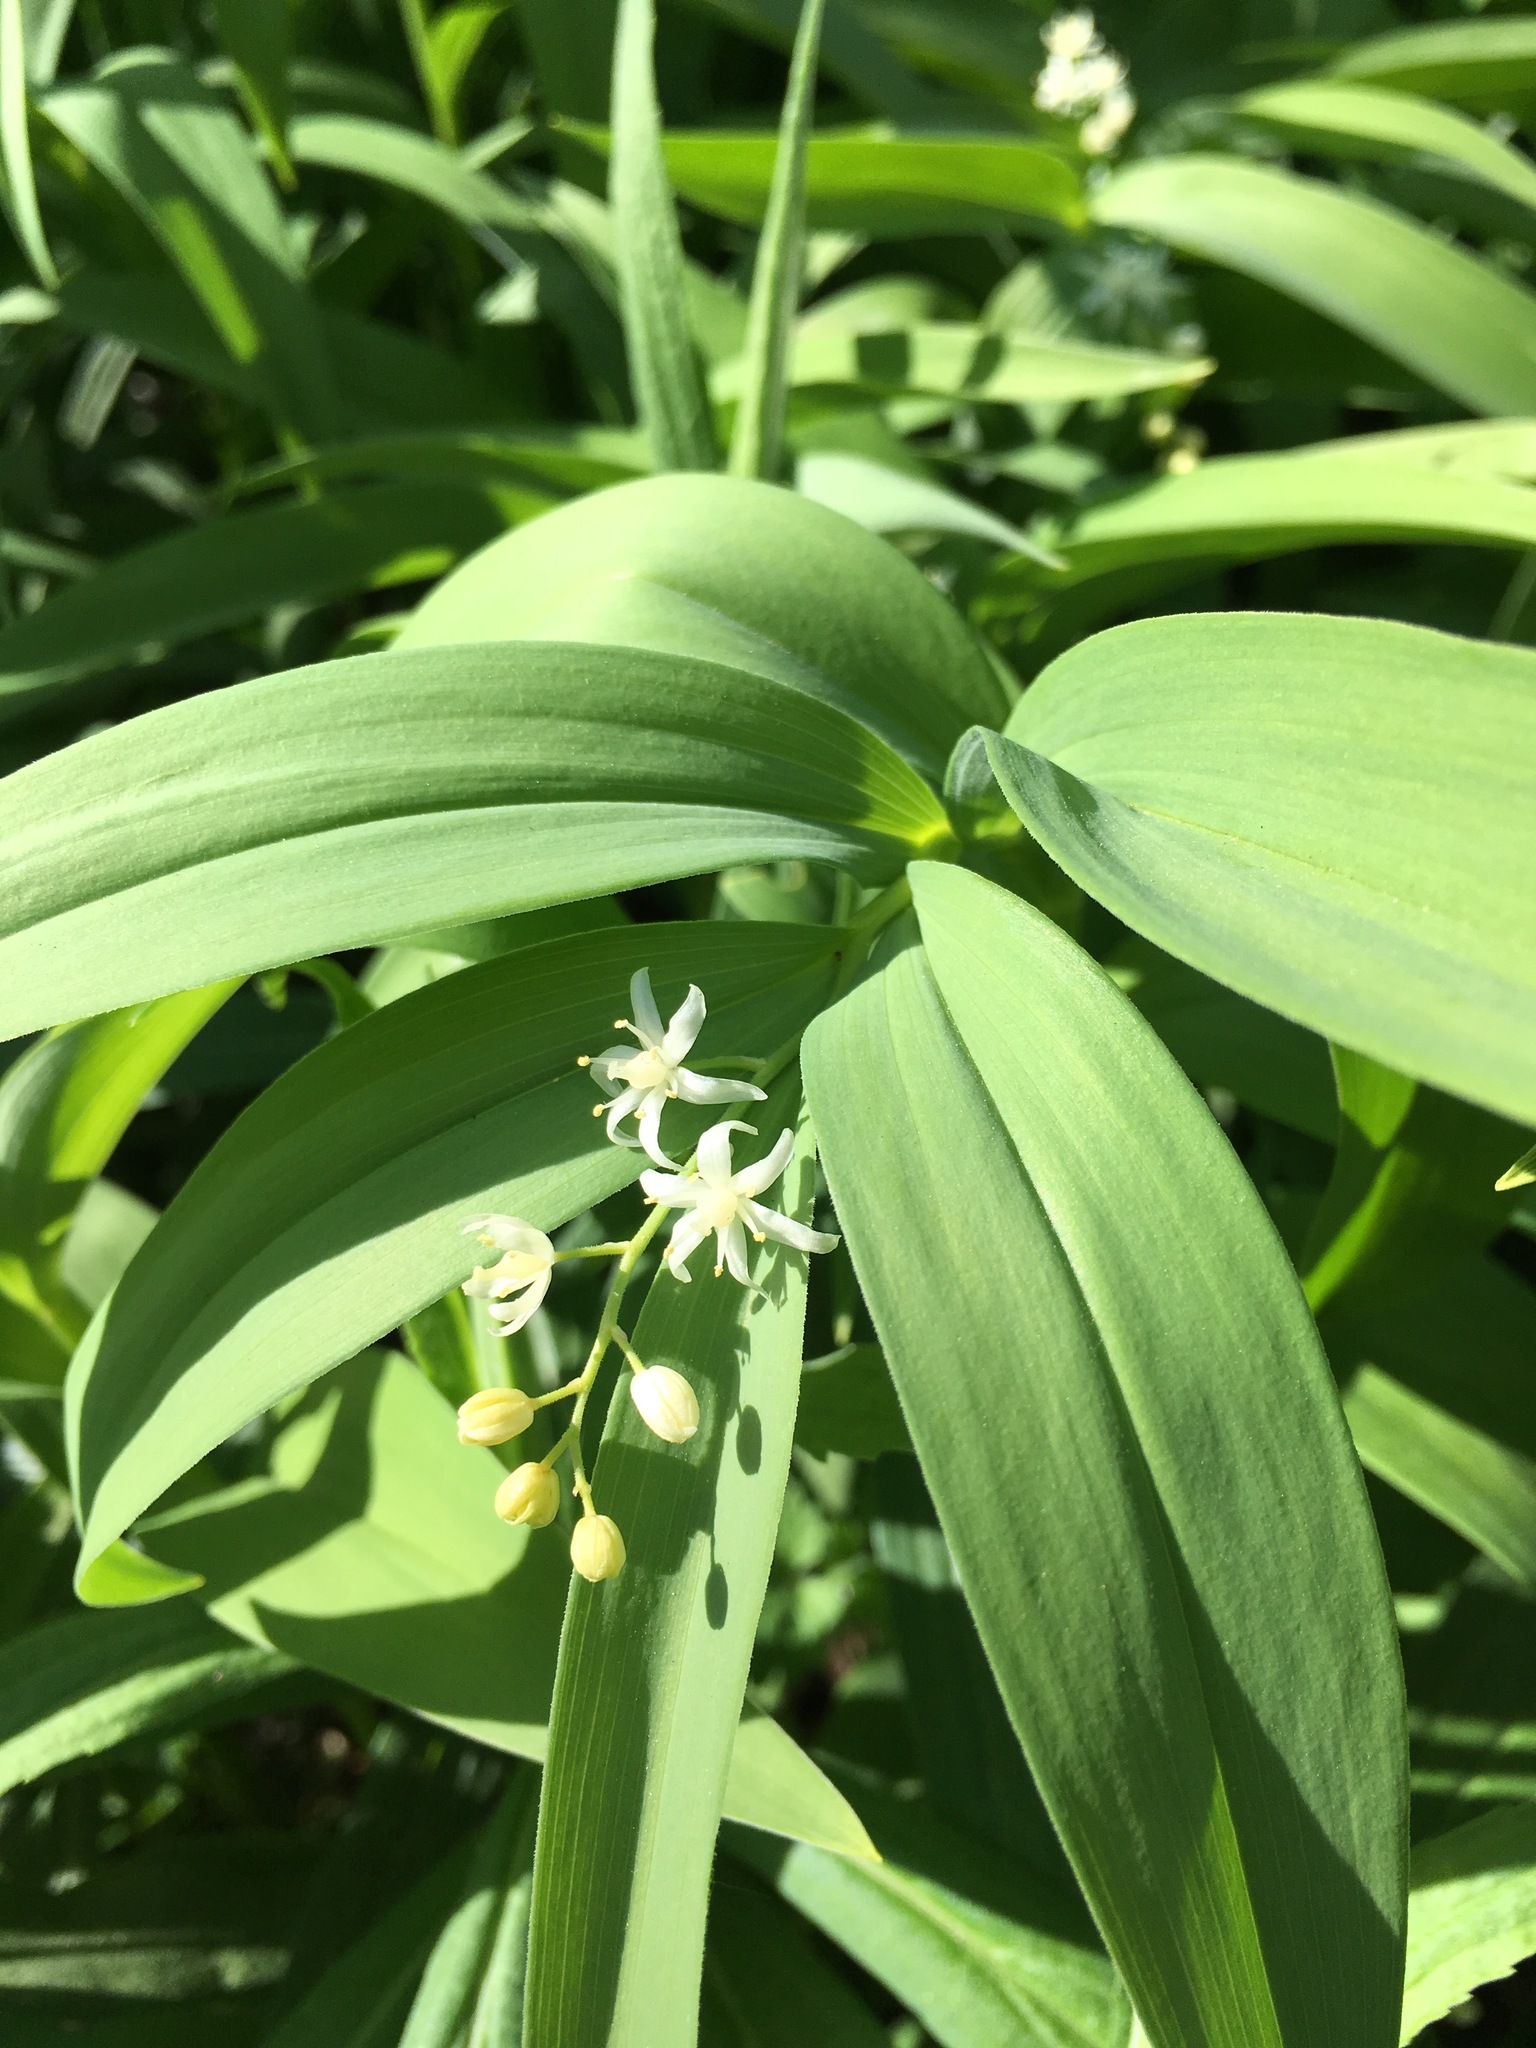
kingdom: Plantae
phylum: Tracheophyta
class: Liliopsida
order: Asparagales
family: Asparagaceae
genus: Maianthemum
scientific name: Maianthemum stellatum
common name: Little false solomon's seal
